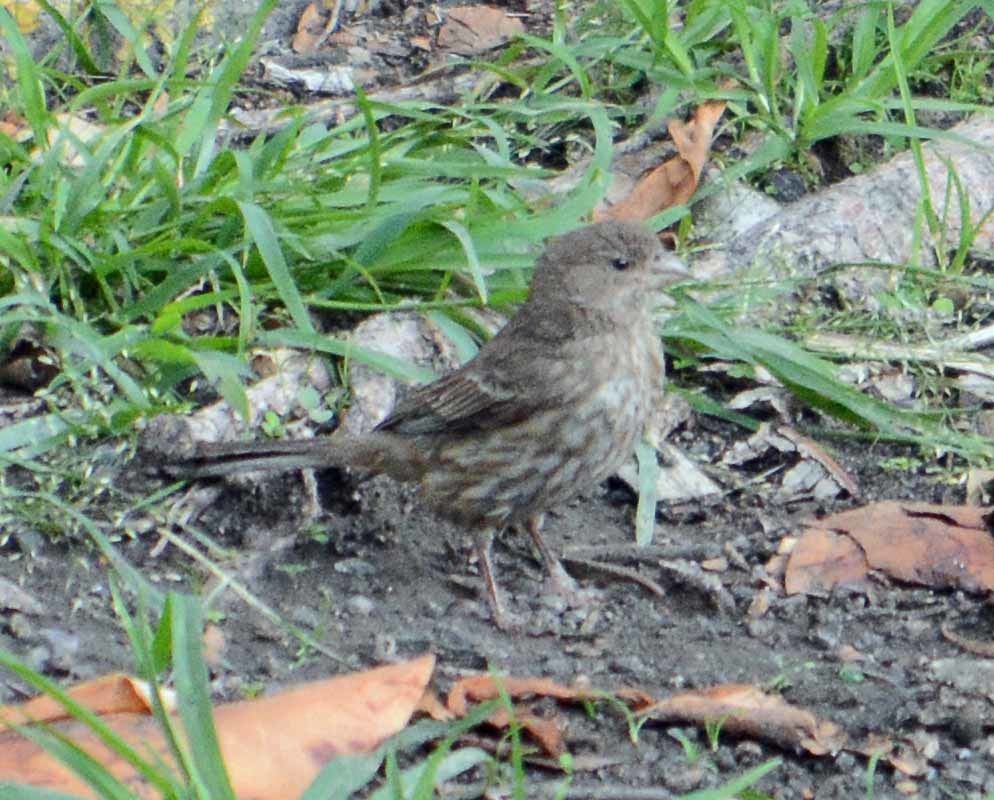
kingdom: Animalia
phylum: Chordata
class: Aves
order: Passeriformes
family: Fringillidae
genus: Haemorhous
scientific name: Haemorhous mexicanus
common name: House finch
